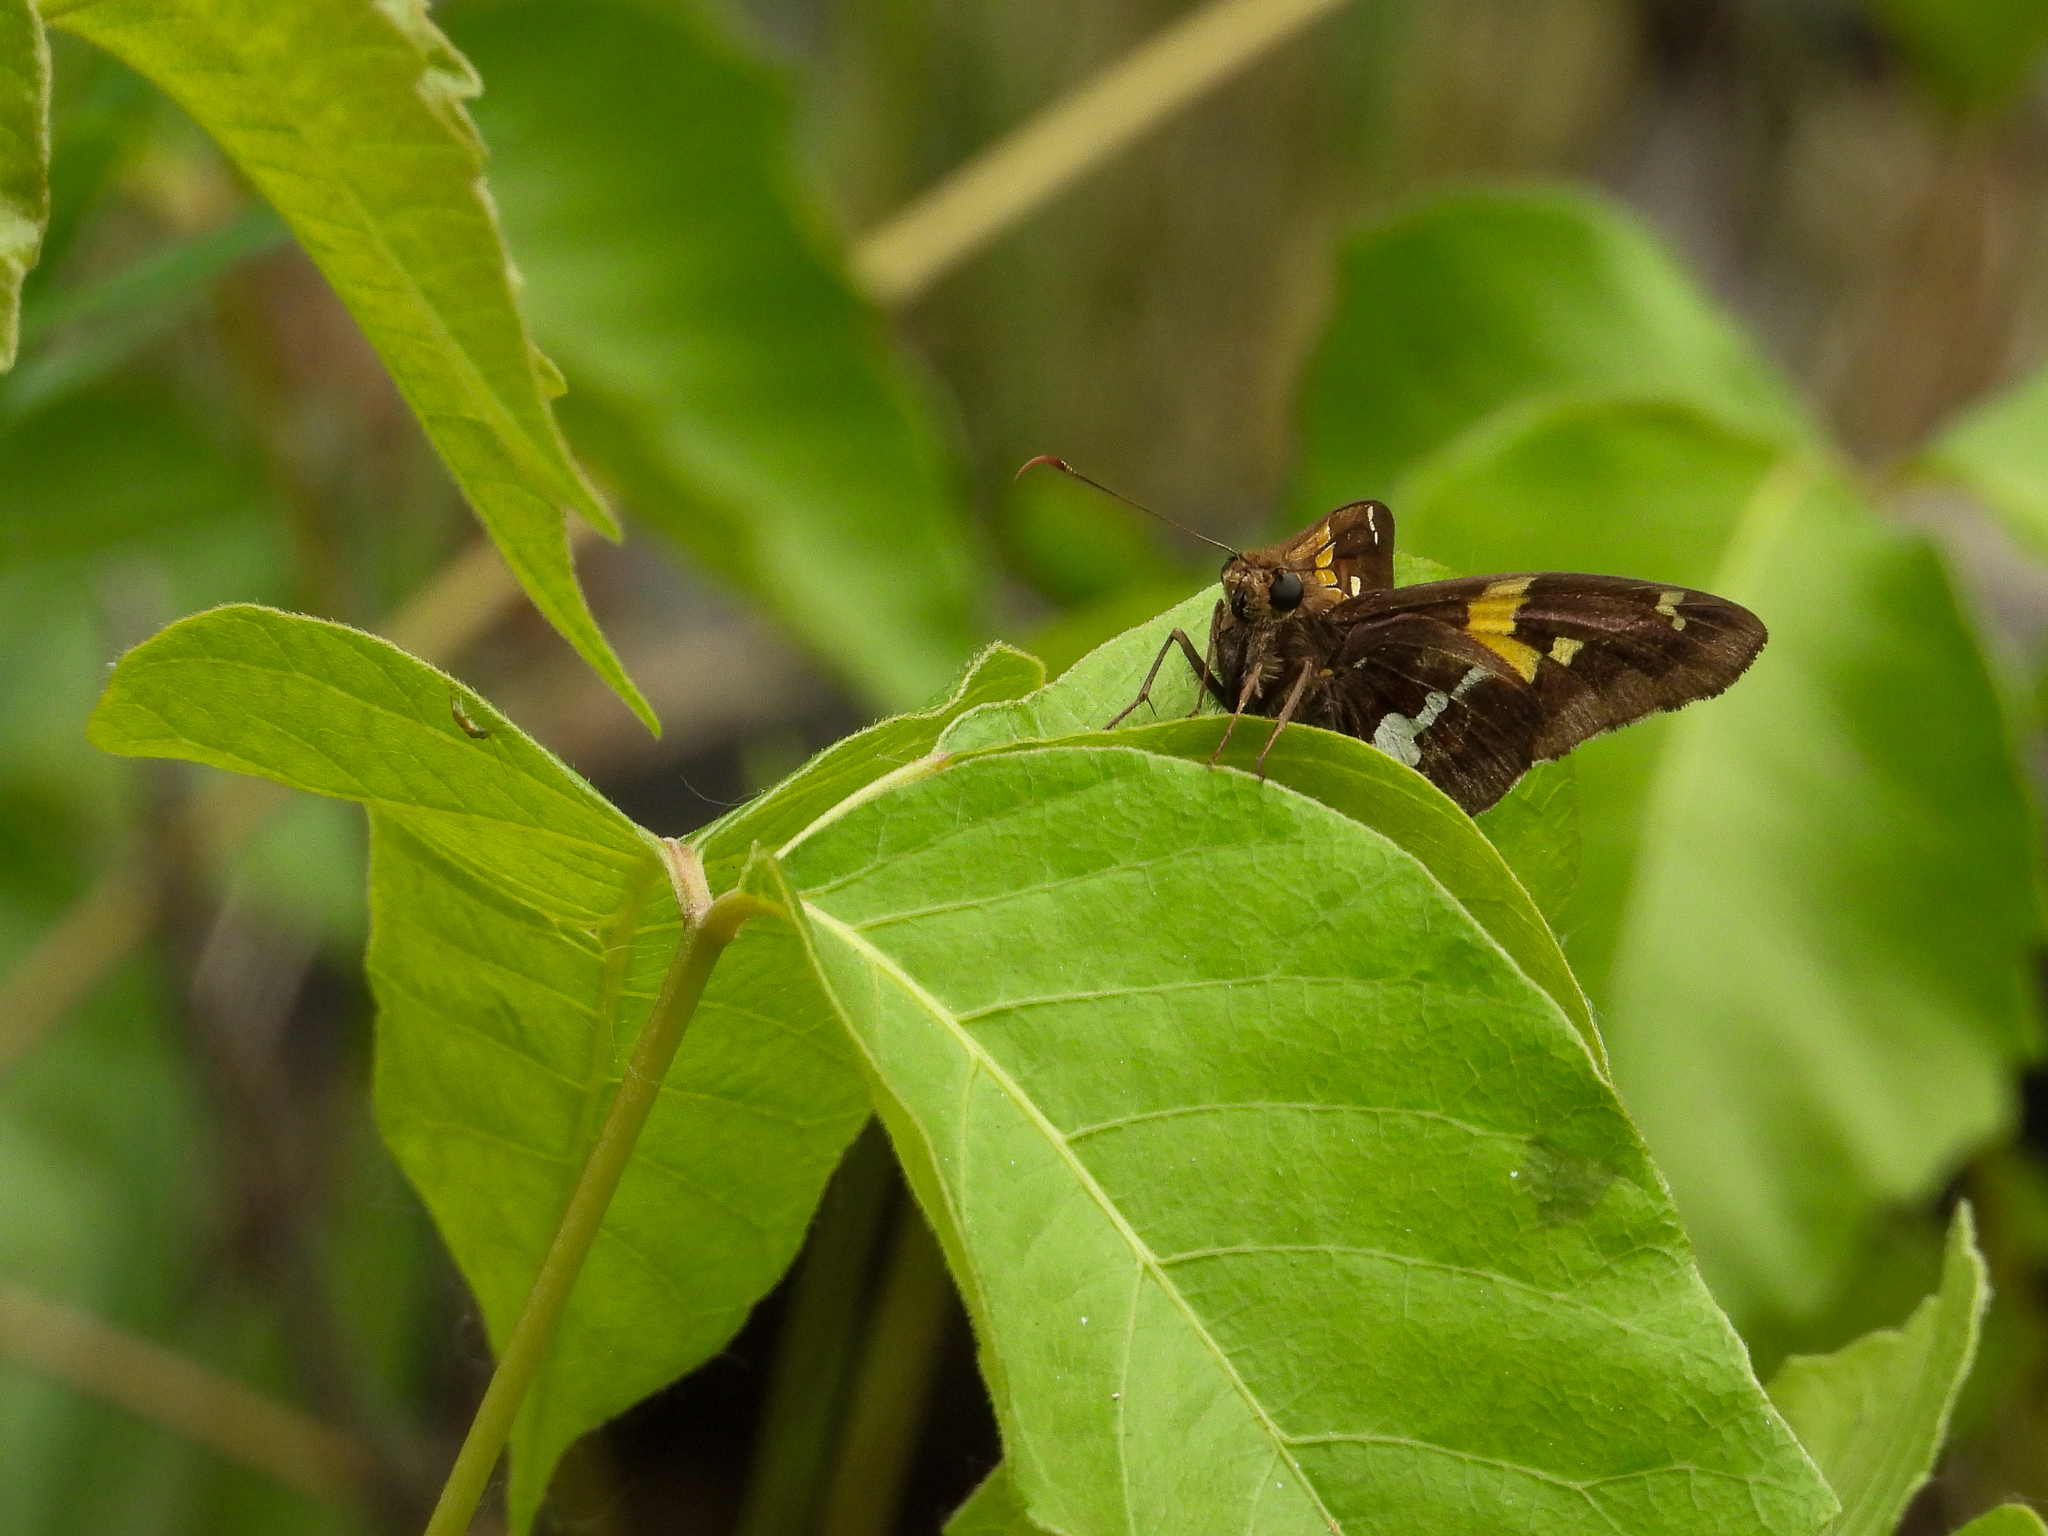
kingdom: Animalia
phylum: Arthropoda
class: Insecta
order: Lepidoptera
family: Hesperiidae
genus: Epargyreus
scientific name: Epargyreus clarus
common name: Silver-spotted skipper
